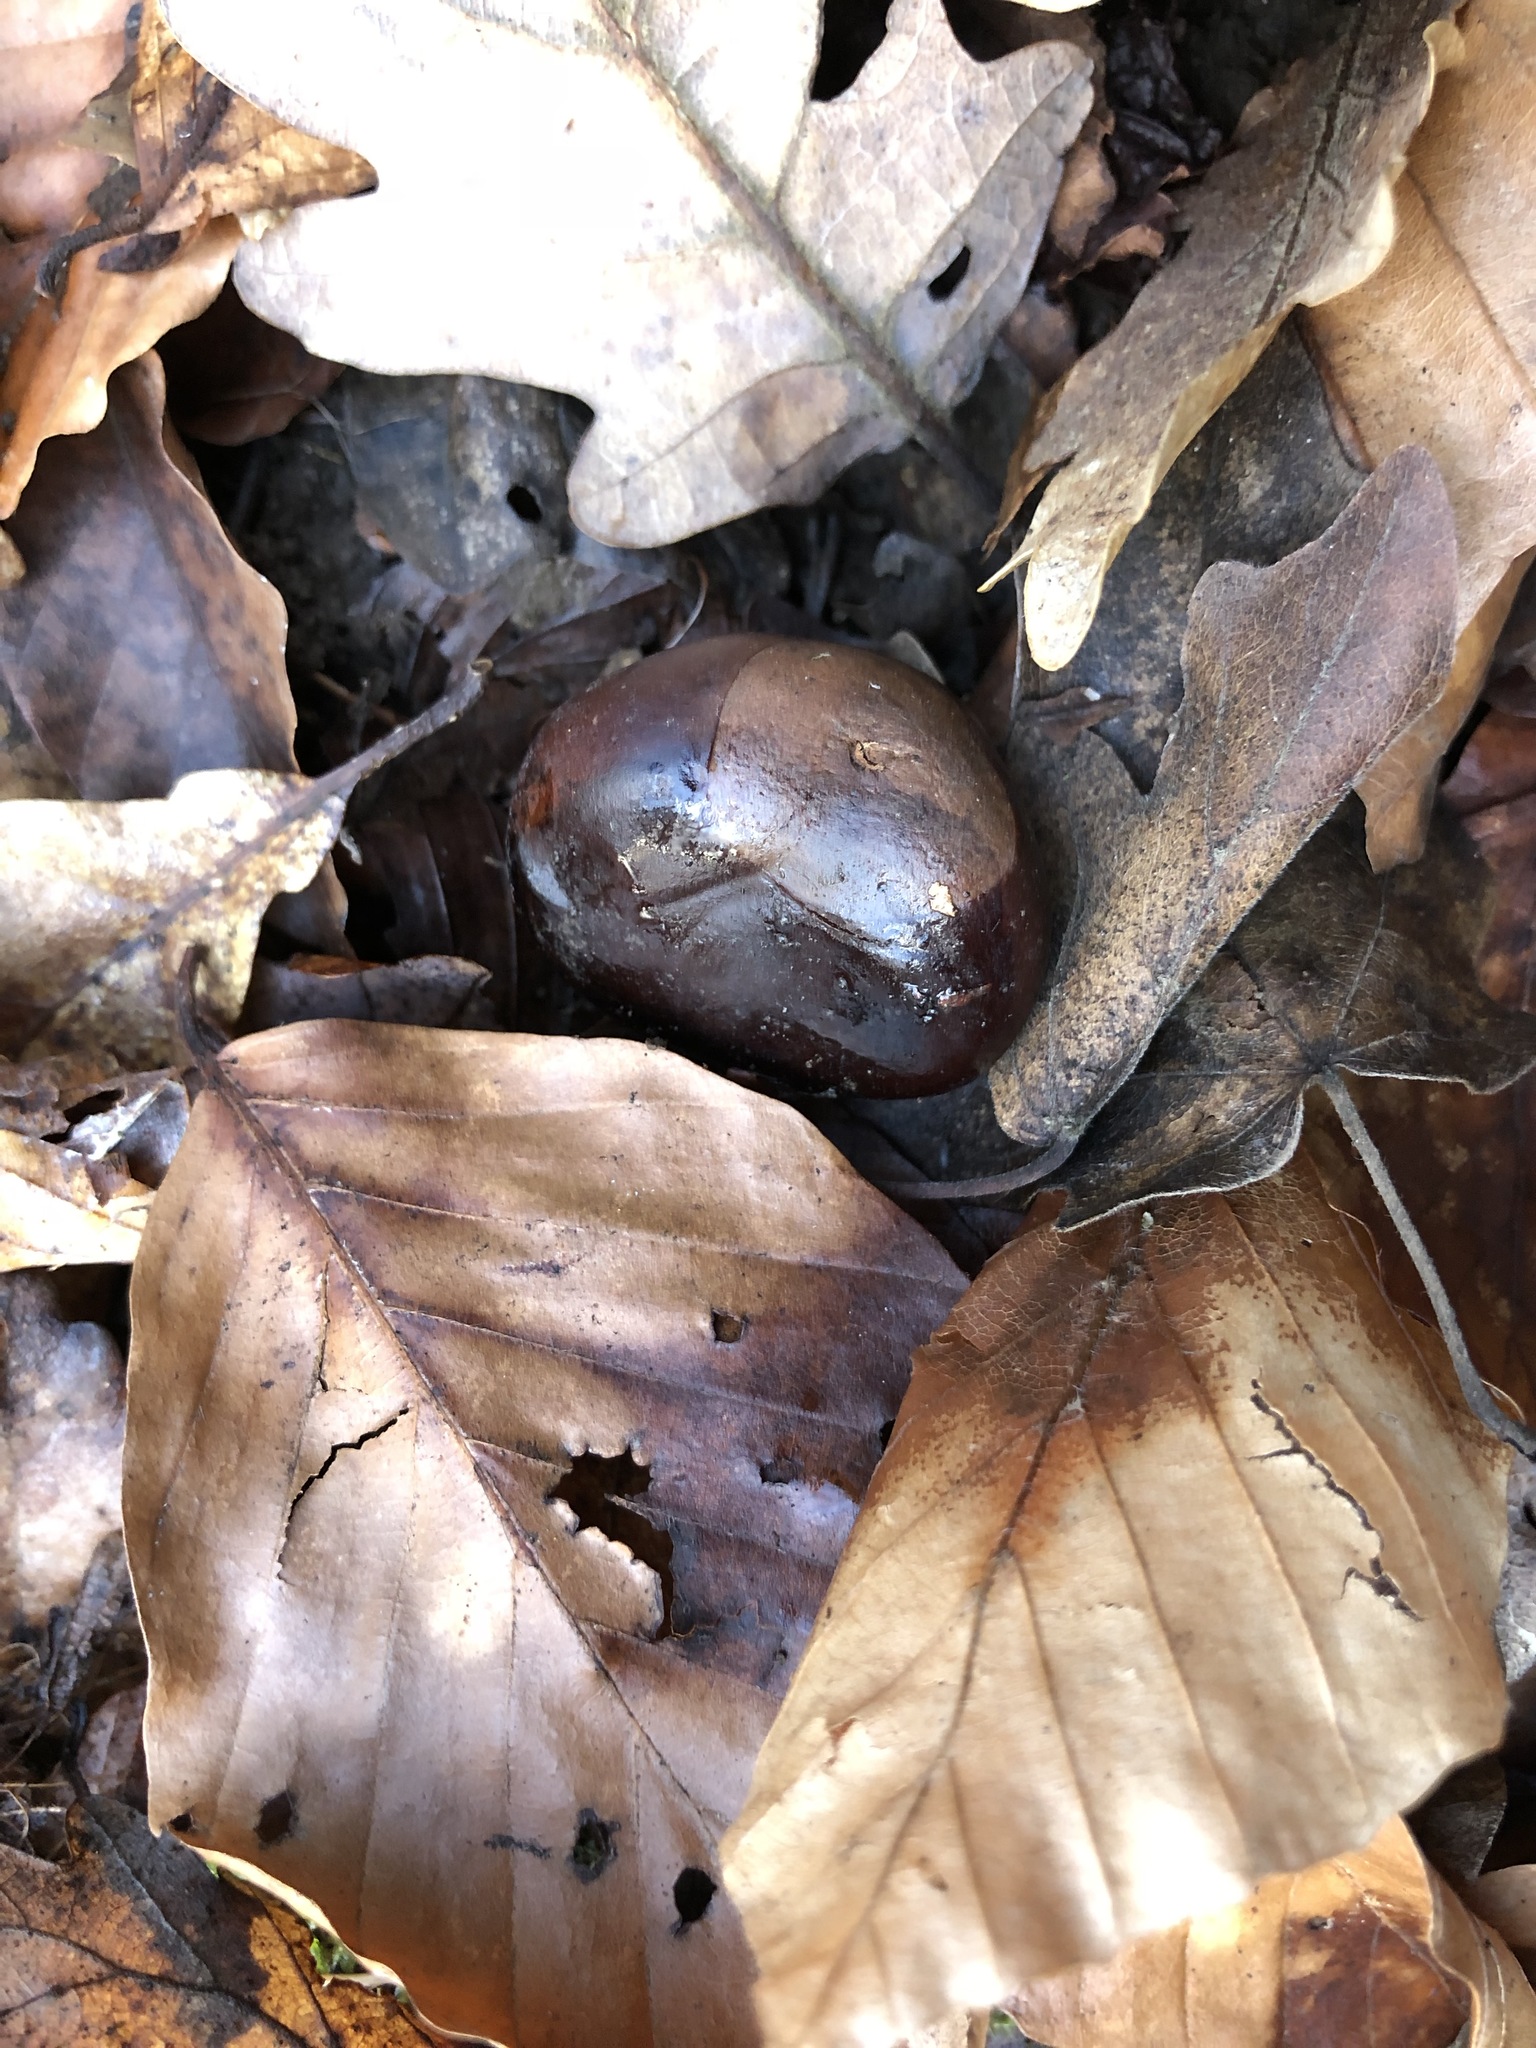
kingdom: Plantae
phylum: Tracheophyta
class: Magnoliopsida
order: Sapindales
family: Sapindaceae
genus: Aesculus
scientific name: Aesculus hippocastanum
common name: Horse-chestnut
